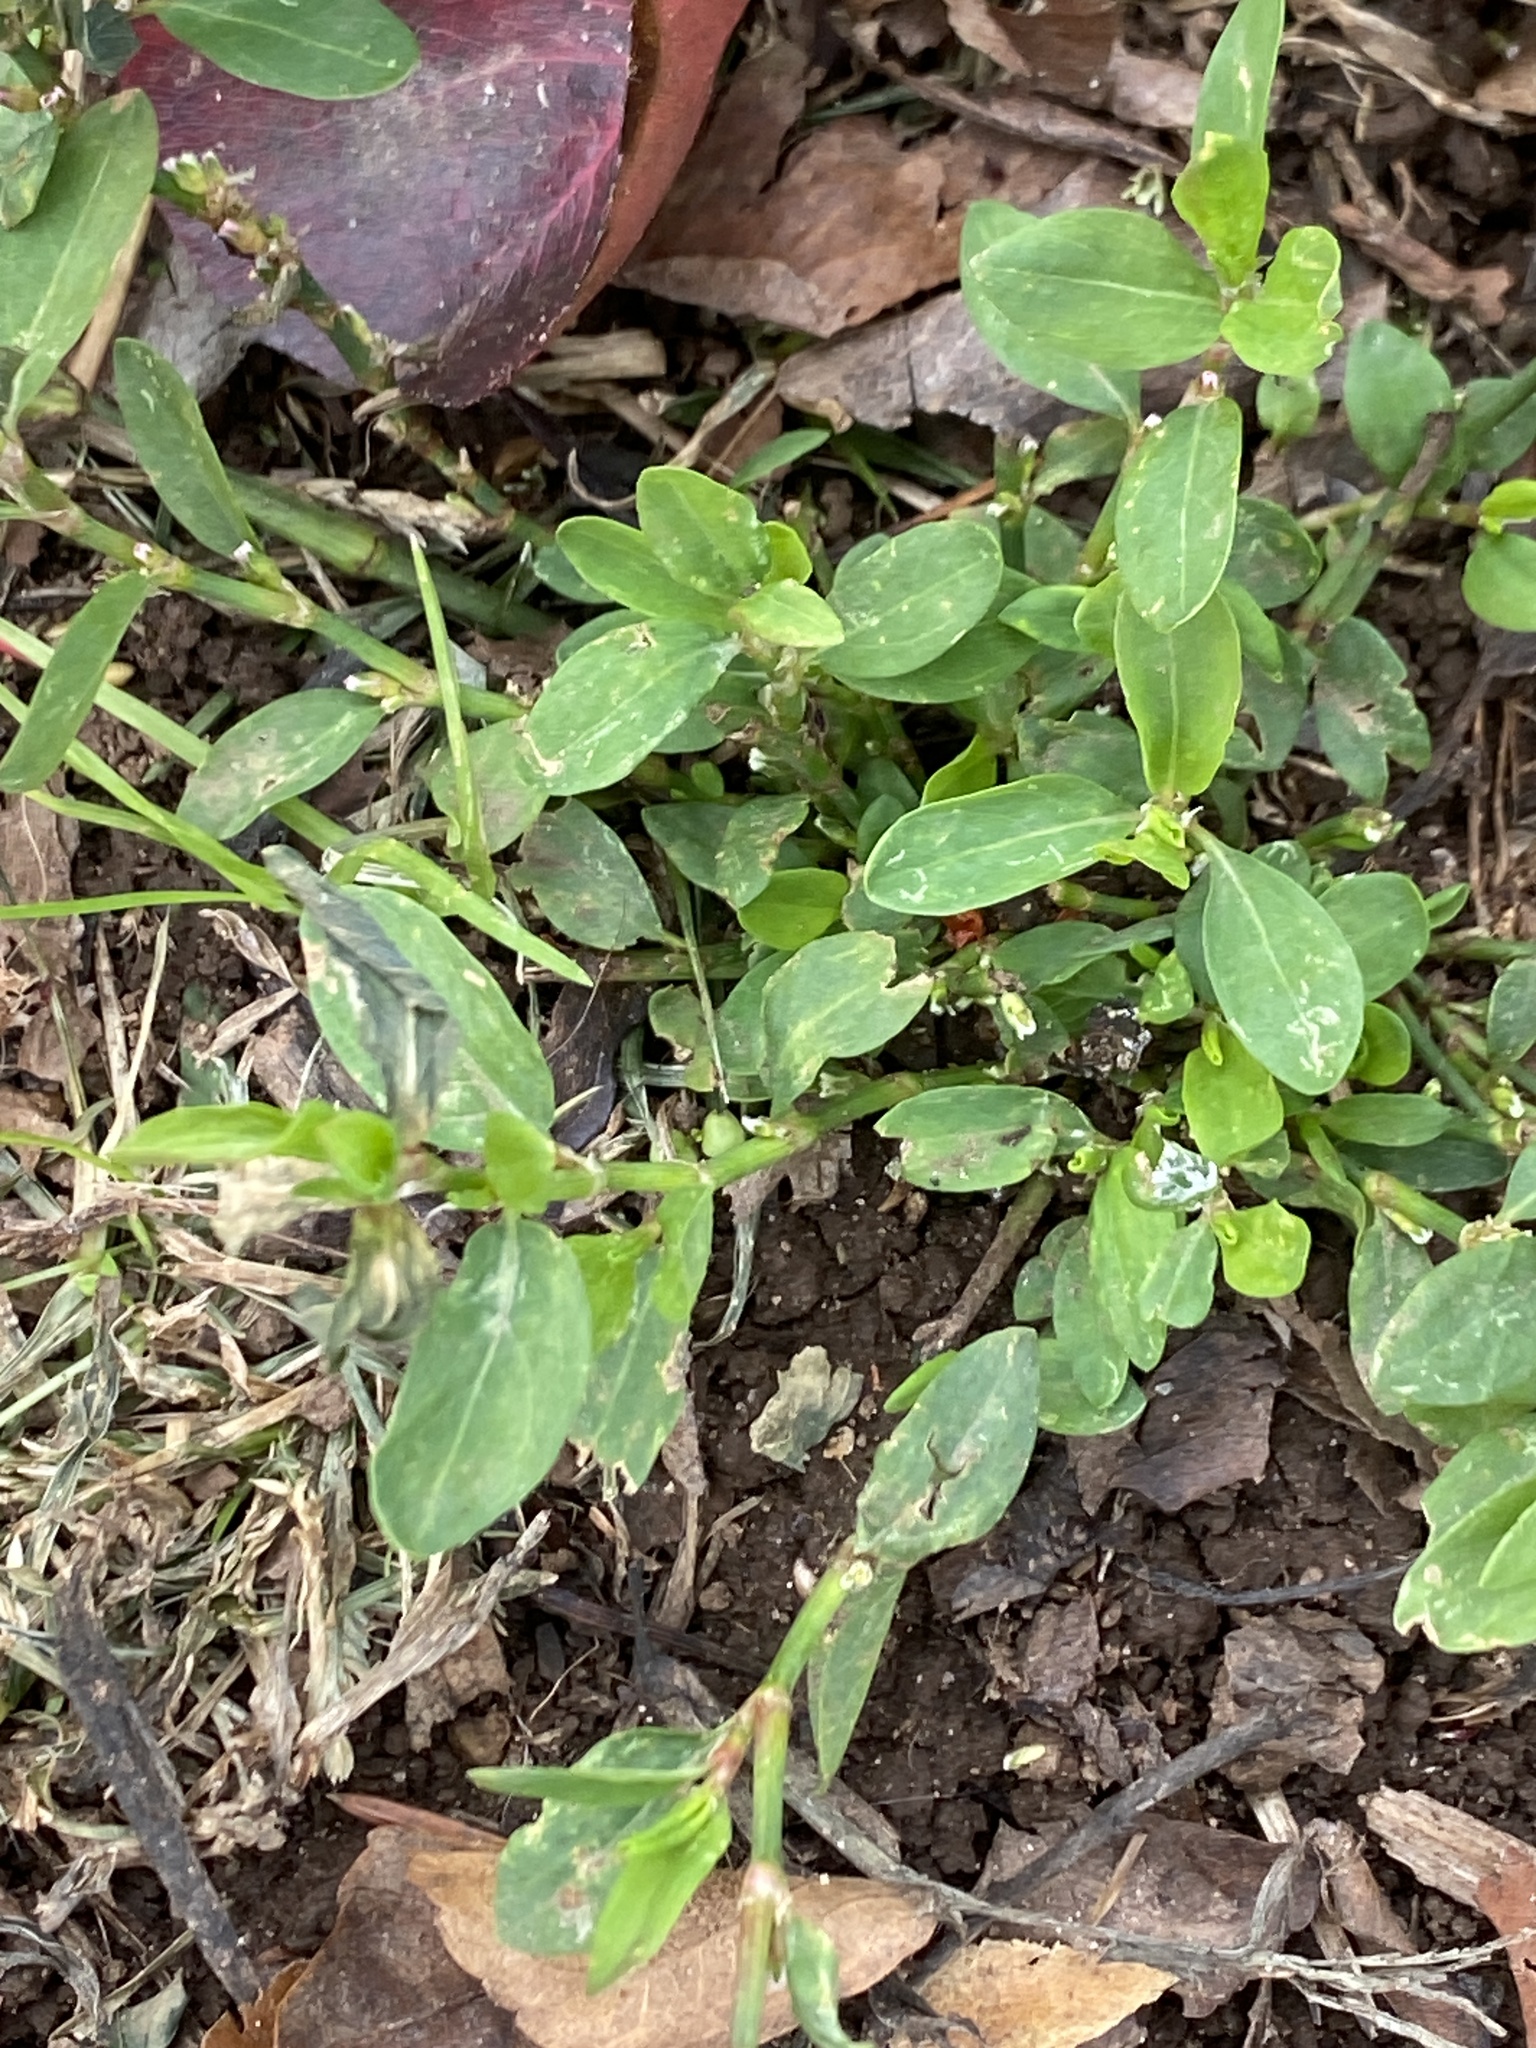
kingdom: Plantae
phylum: Tracheophyta
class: Magnoliopsida
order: Caryophyllales
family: Polygonaceae
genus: Polygonum
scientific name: Polygonum aviculare
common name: Prostrate knotweed
